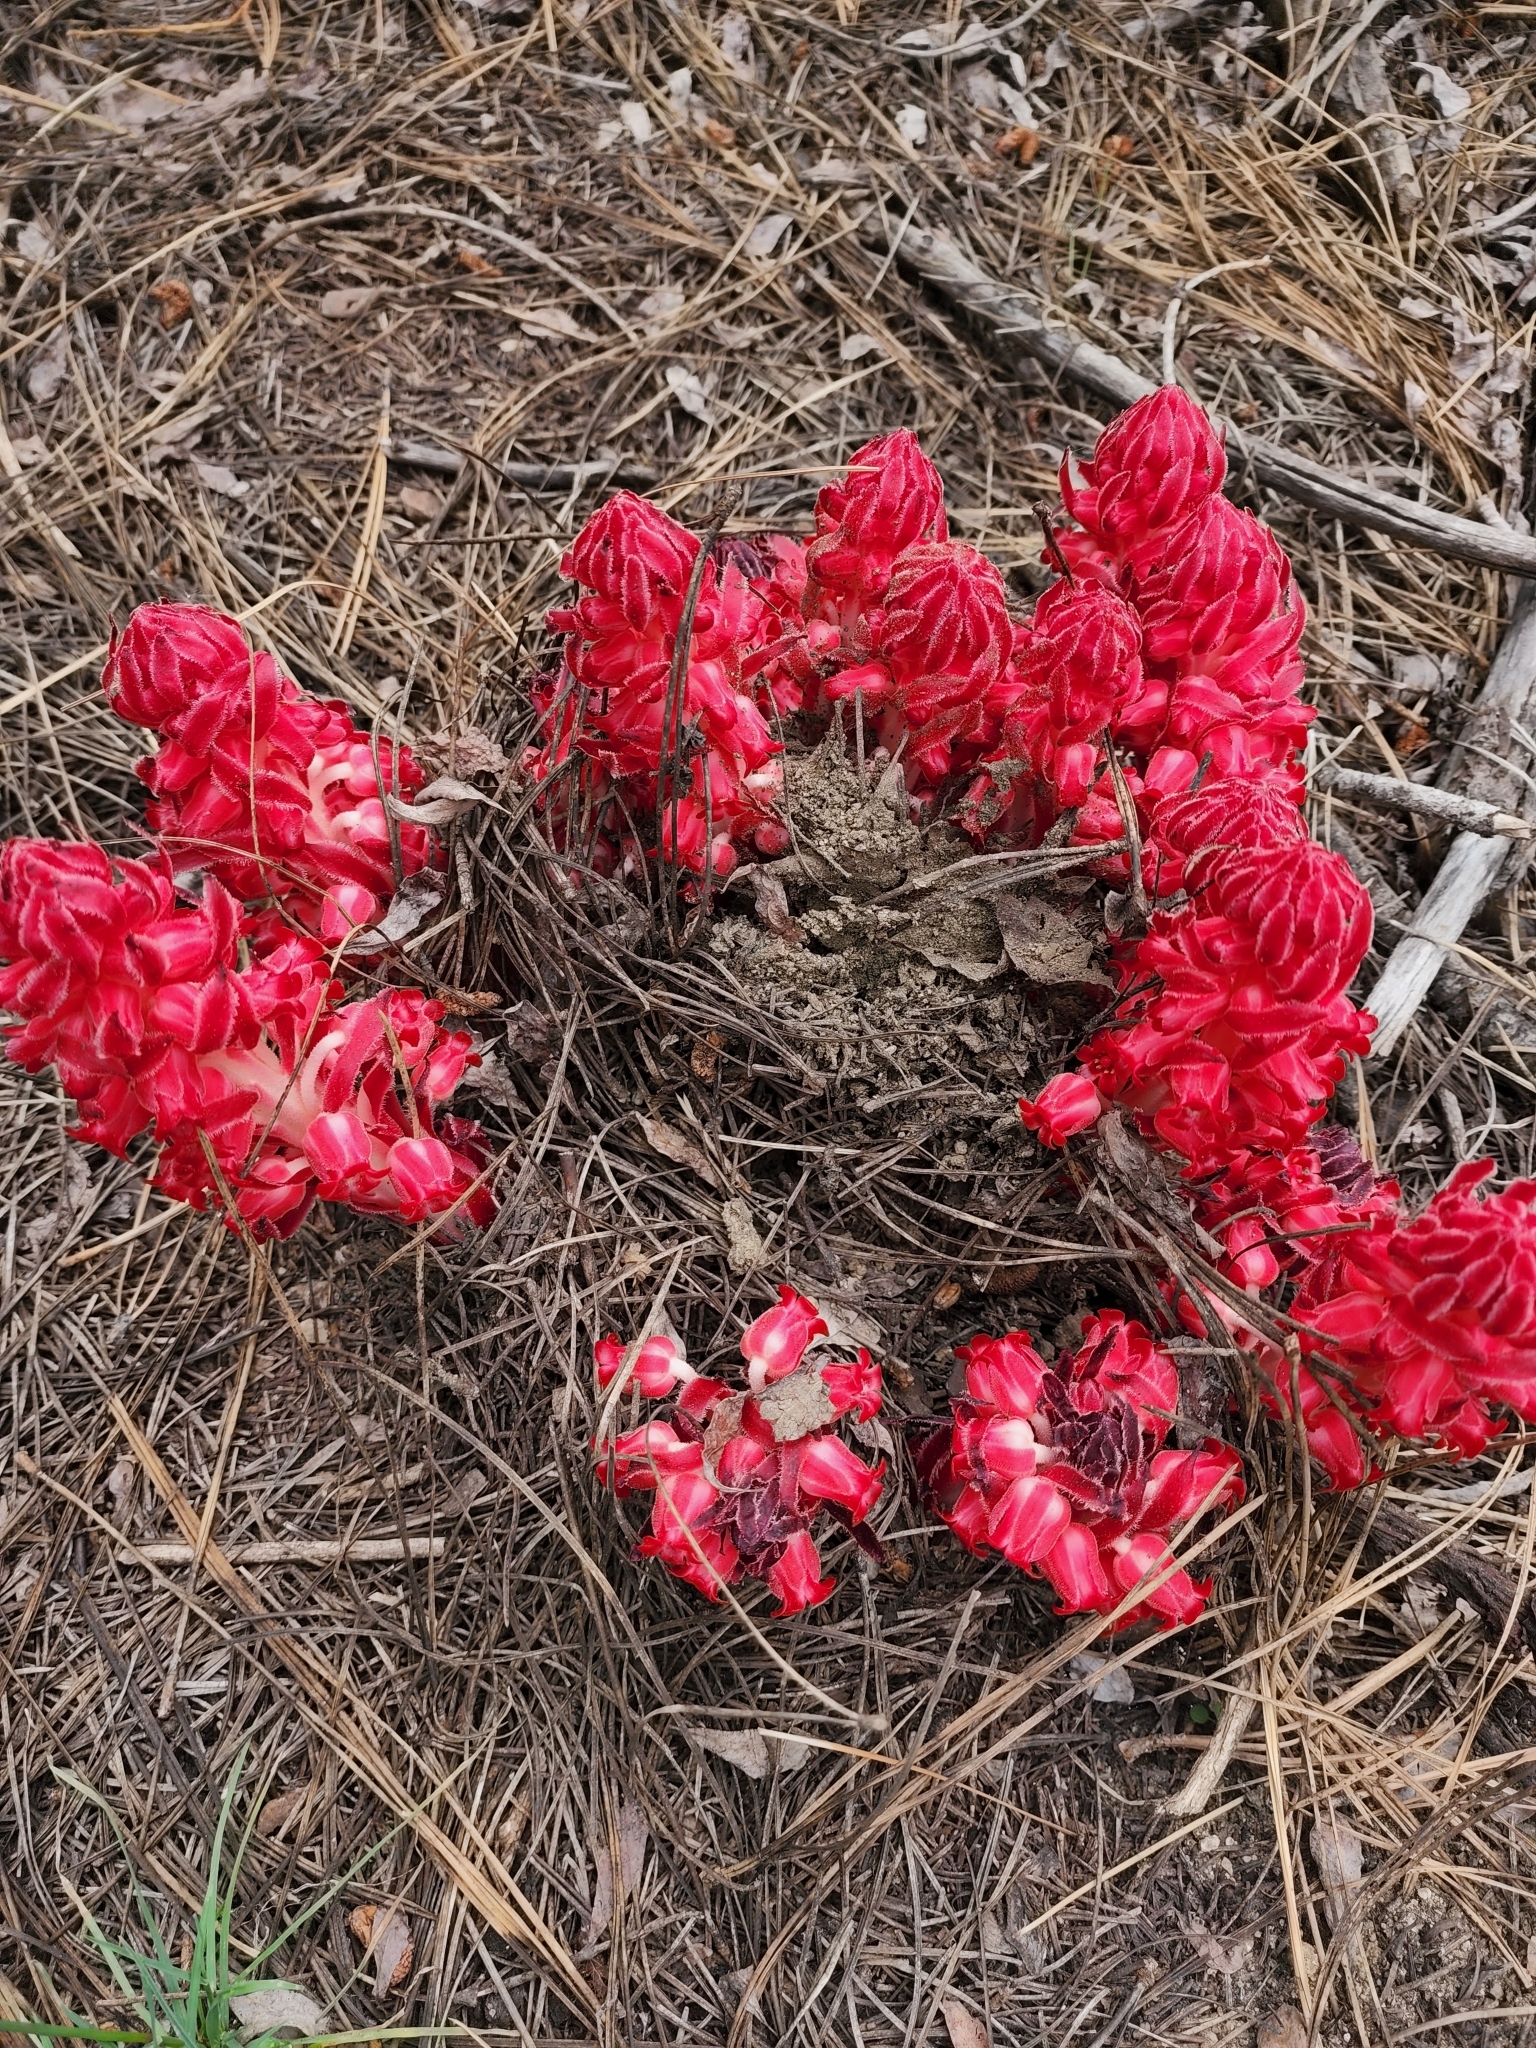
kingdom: Plantae
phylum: Tracheophyta
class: Magnoliopsida
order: Ericales
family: Ericaceae
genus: Sarcodes
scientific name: Sarcodes sanguinea
